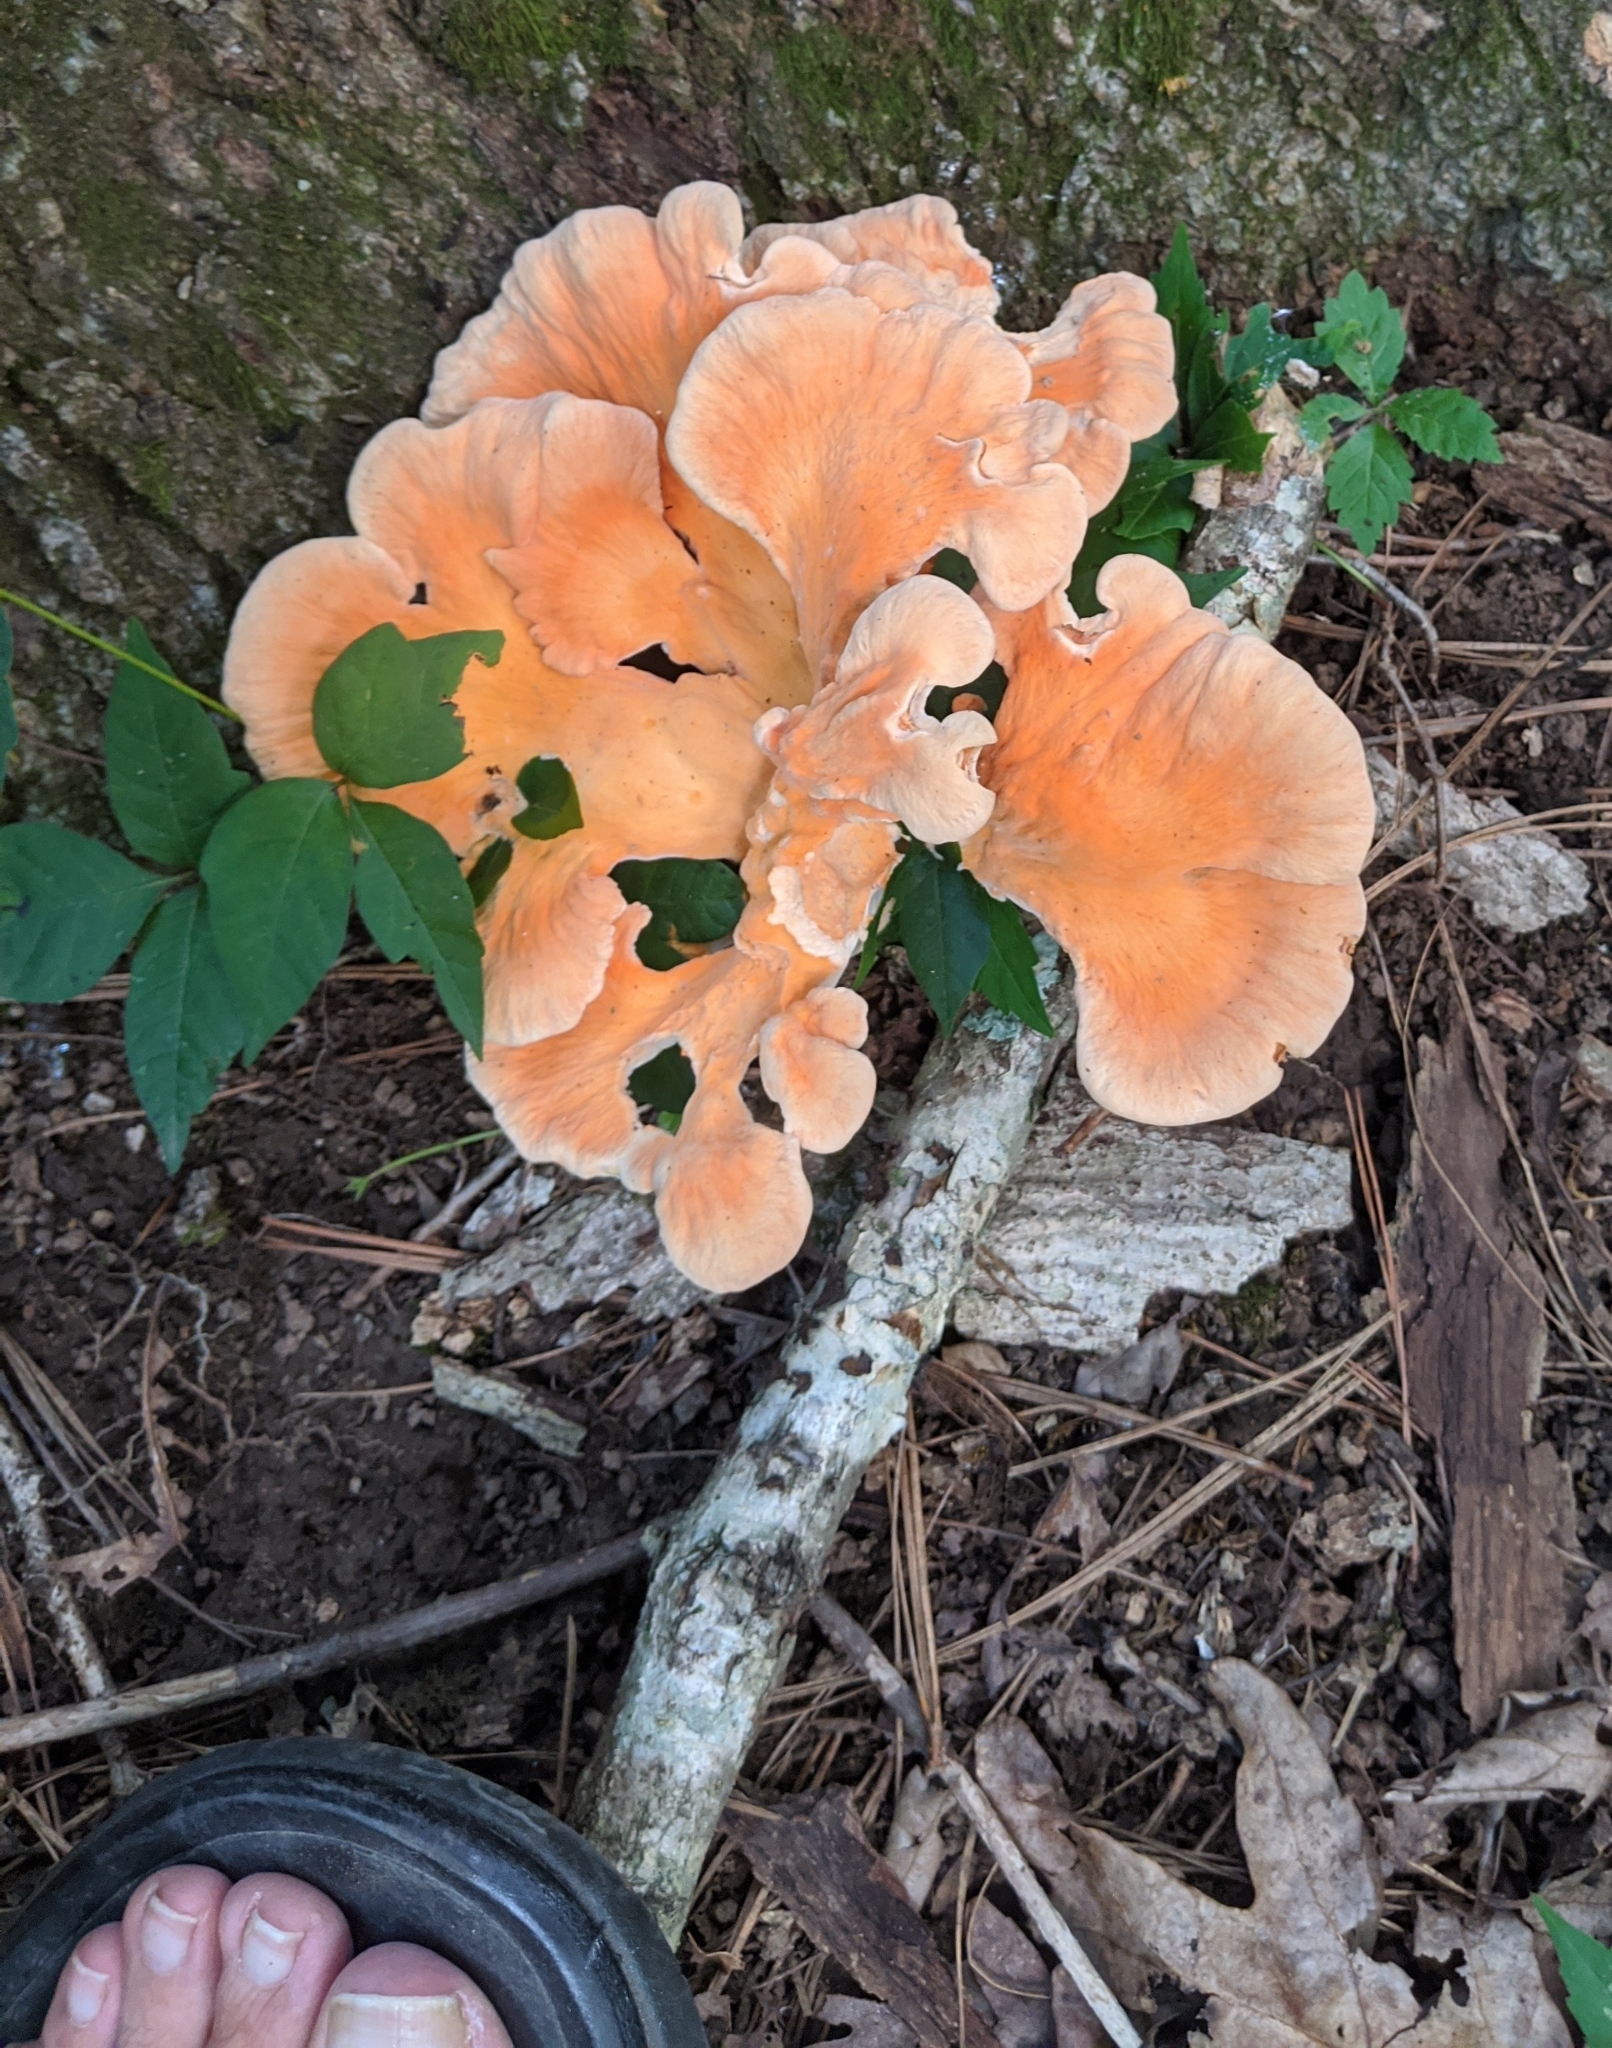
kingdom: Fungi
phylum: Basidiomycota
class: Agaricomycetes
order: Polyporales
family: Laetiporaceae
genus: Laetiporus
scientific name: Laetiporus sulphureus
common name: Chicken of the woods
